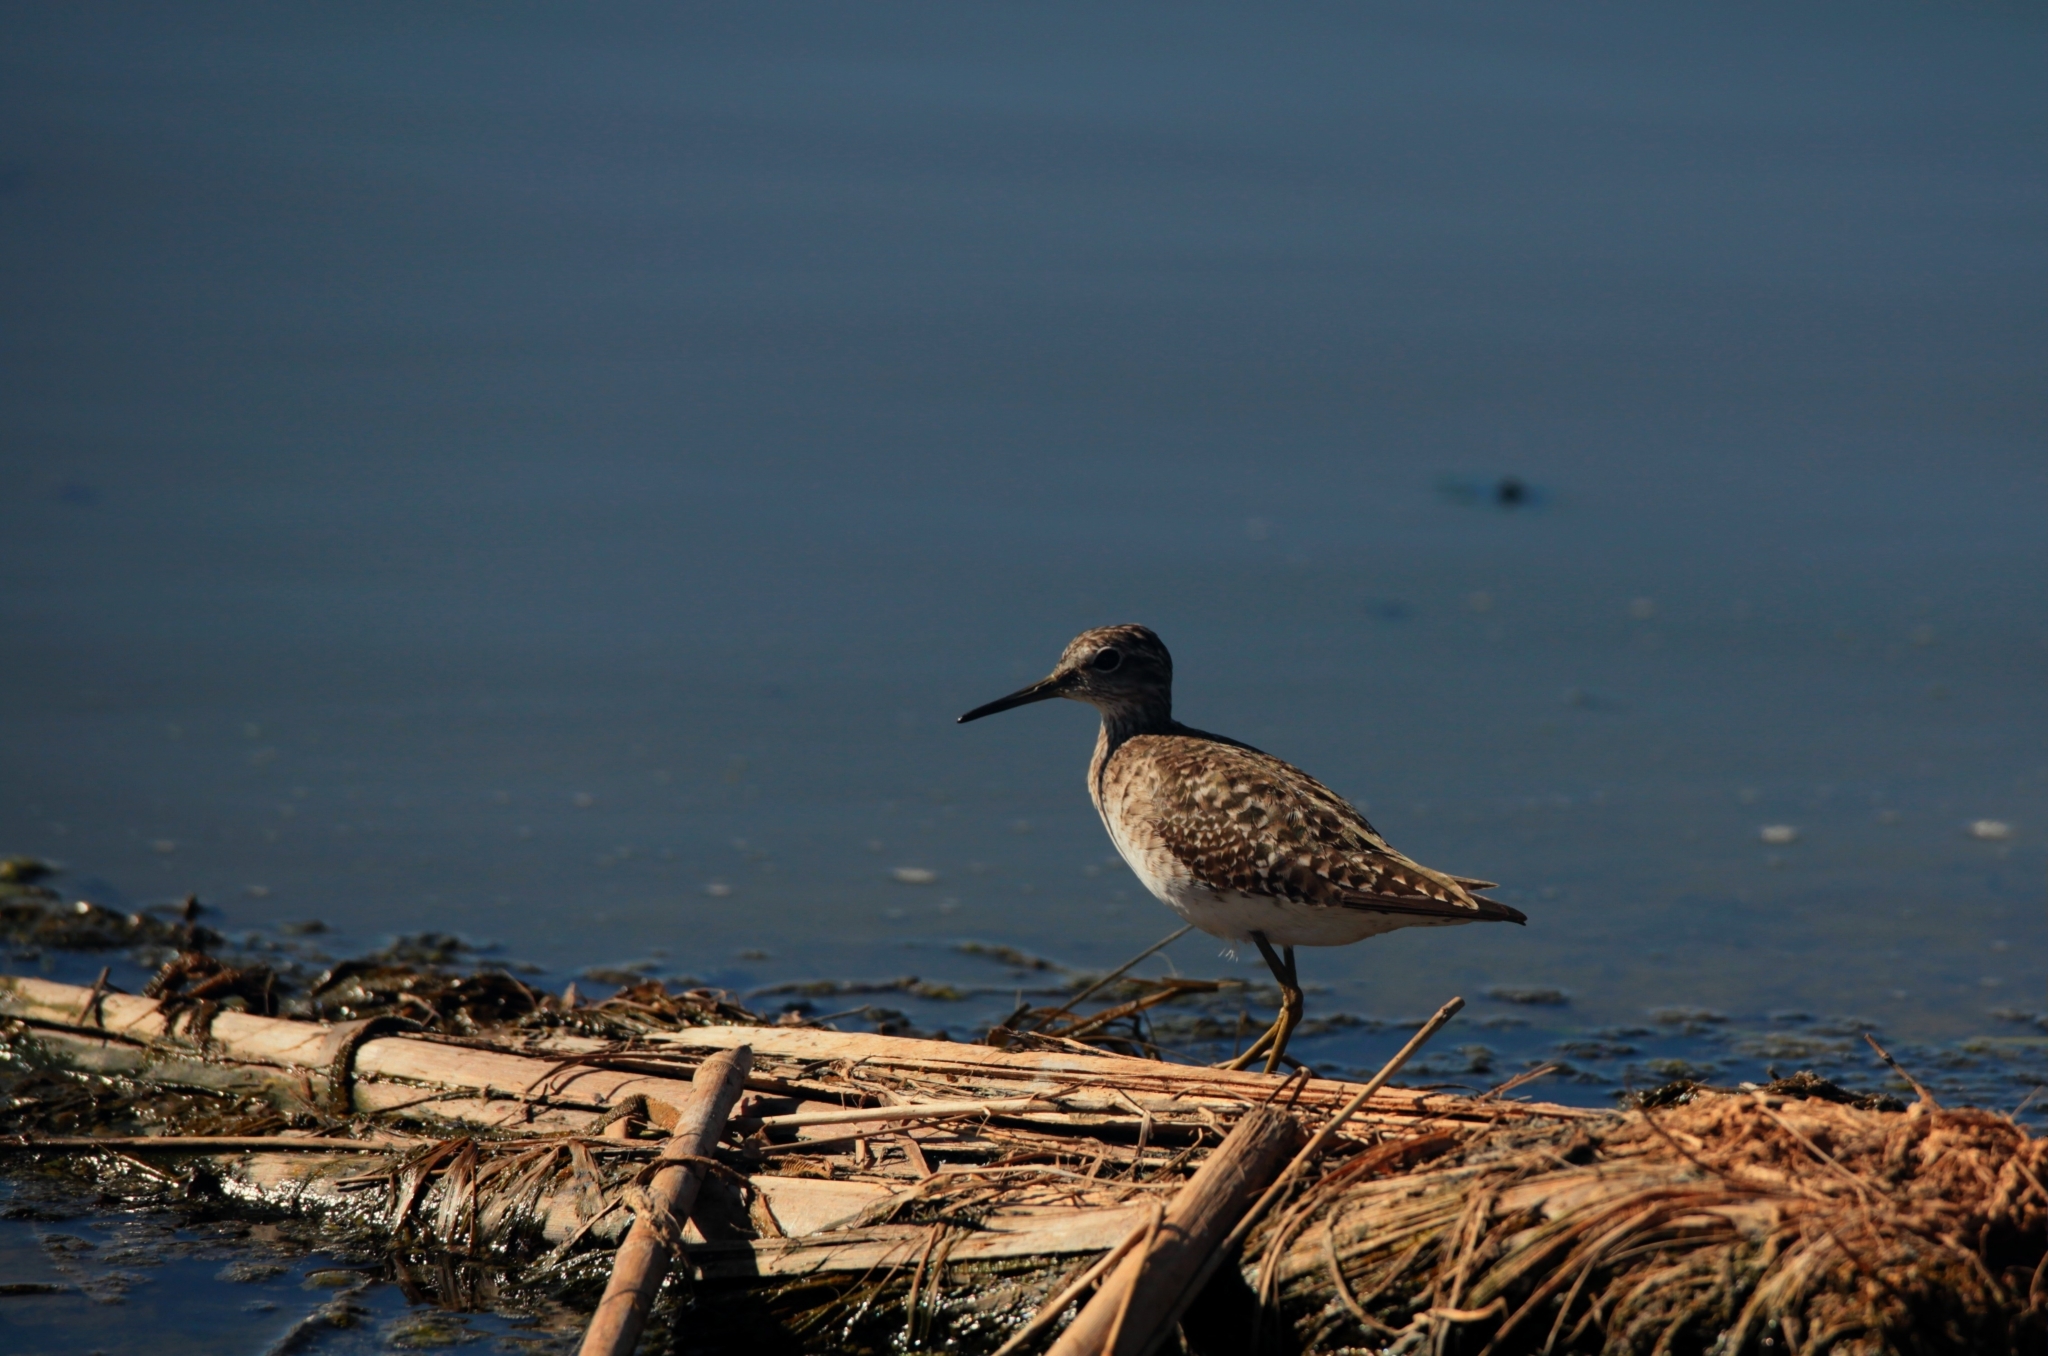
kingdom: Animalia
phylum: Chordata
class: Aves
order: Charadriiformes
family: Scolopacidae
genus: Tringa
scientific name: Tringa glareola
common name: Wood sandpiper
